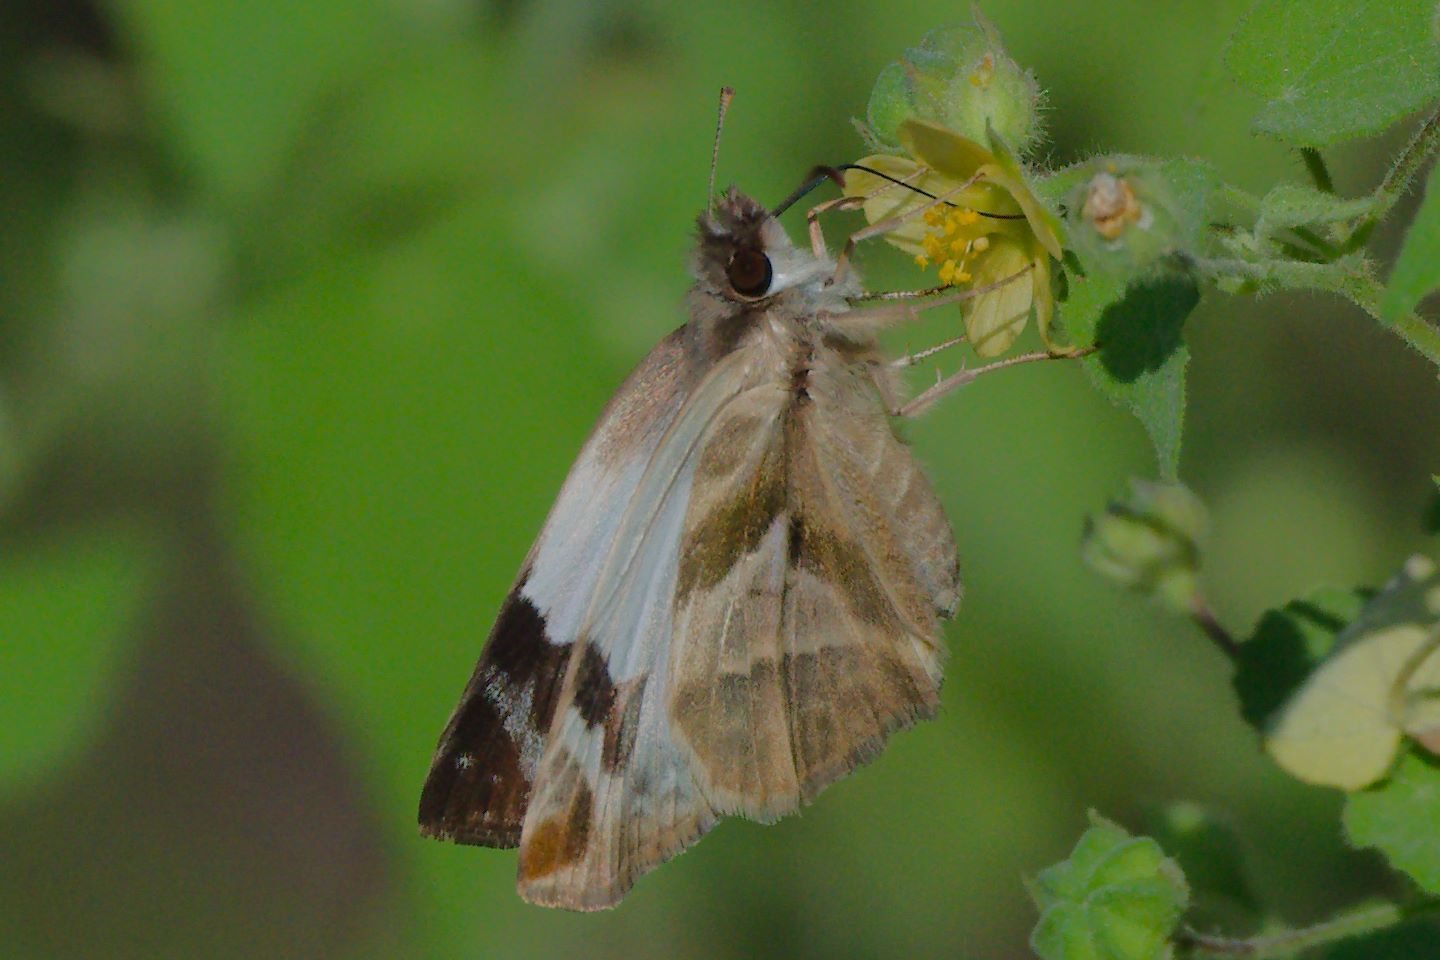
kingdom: Animalia
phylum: Arthropoda
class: Insecta
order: Lepidoptera
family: Hesperiidae
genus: Heliopetes
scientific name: Heliopetes laviana
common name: Laviana white-skipper
